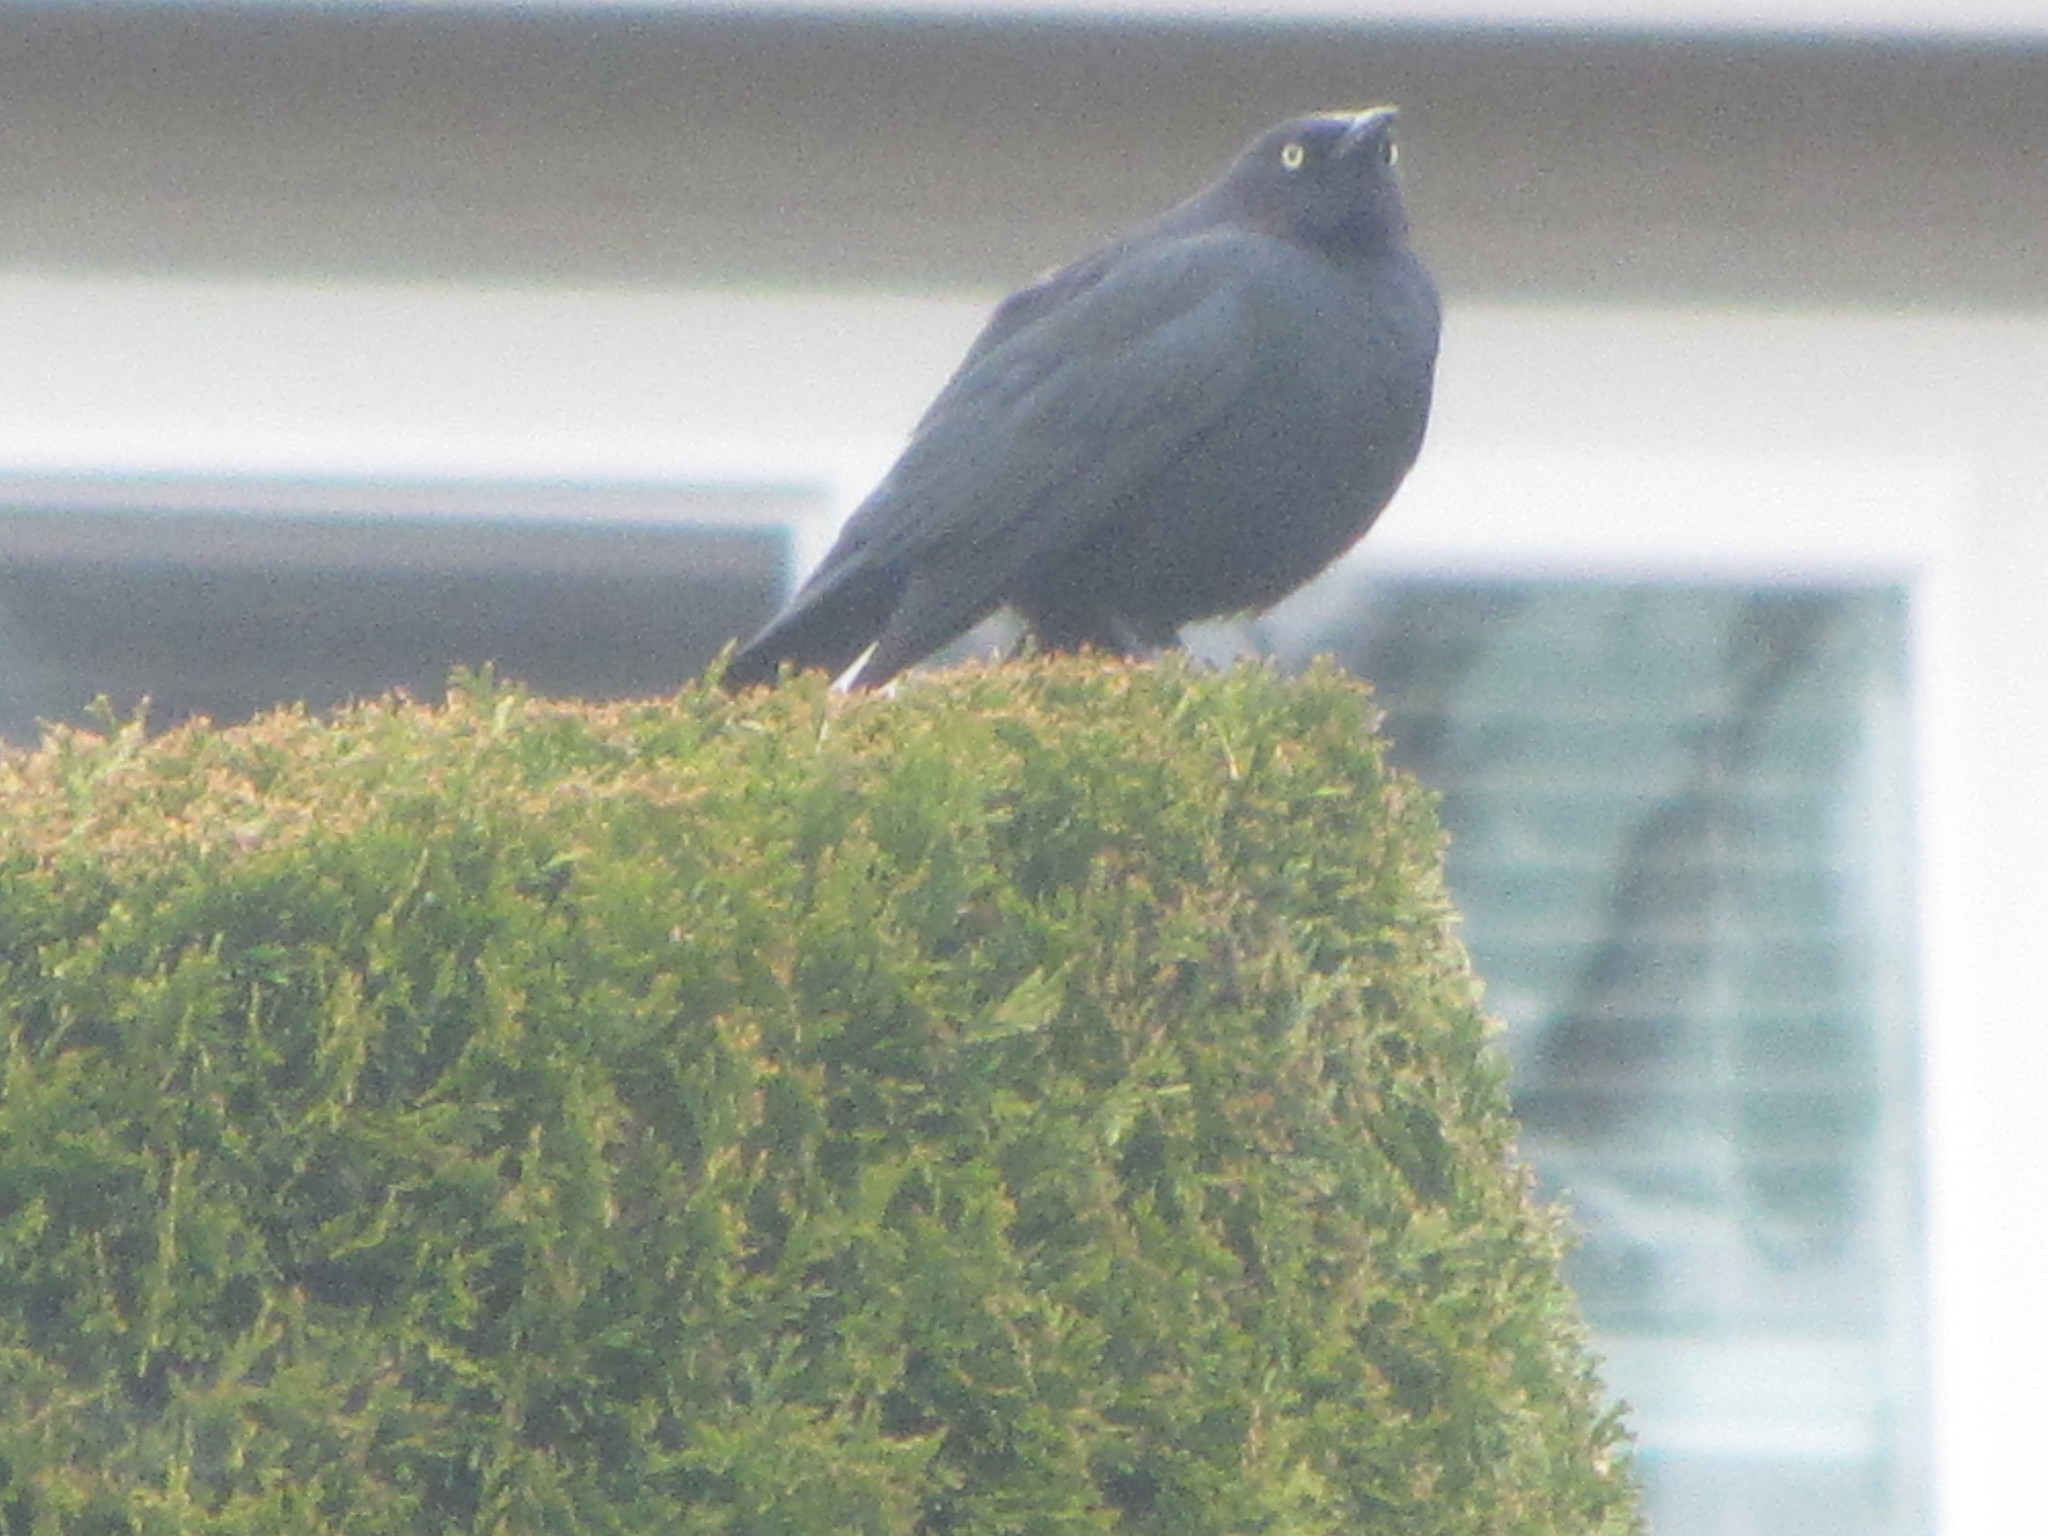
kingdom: Animalia
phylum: Chordata
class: Aves
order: Passeriformes
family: Icteridae
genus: Euphagus
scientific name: Euphagus cyanocephalus
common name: Brewer's blackbird
